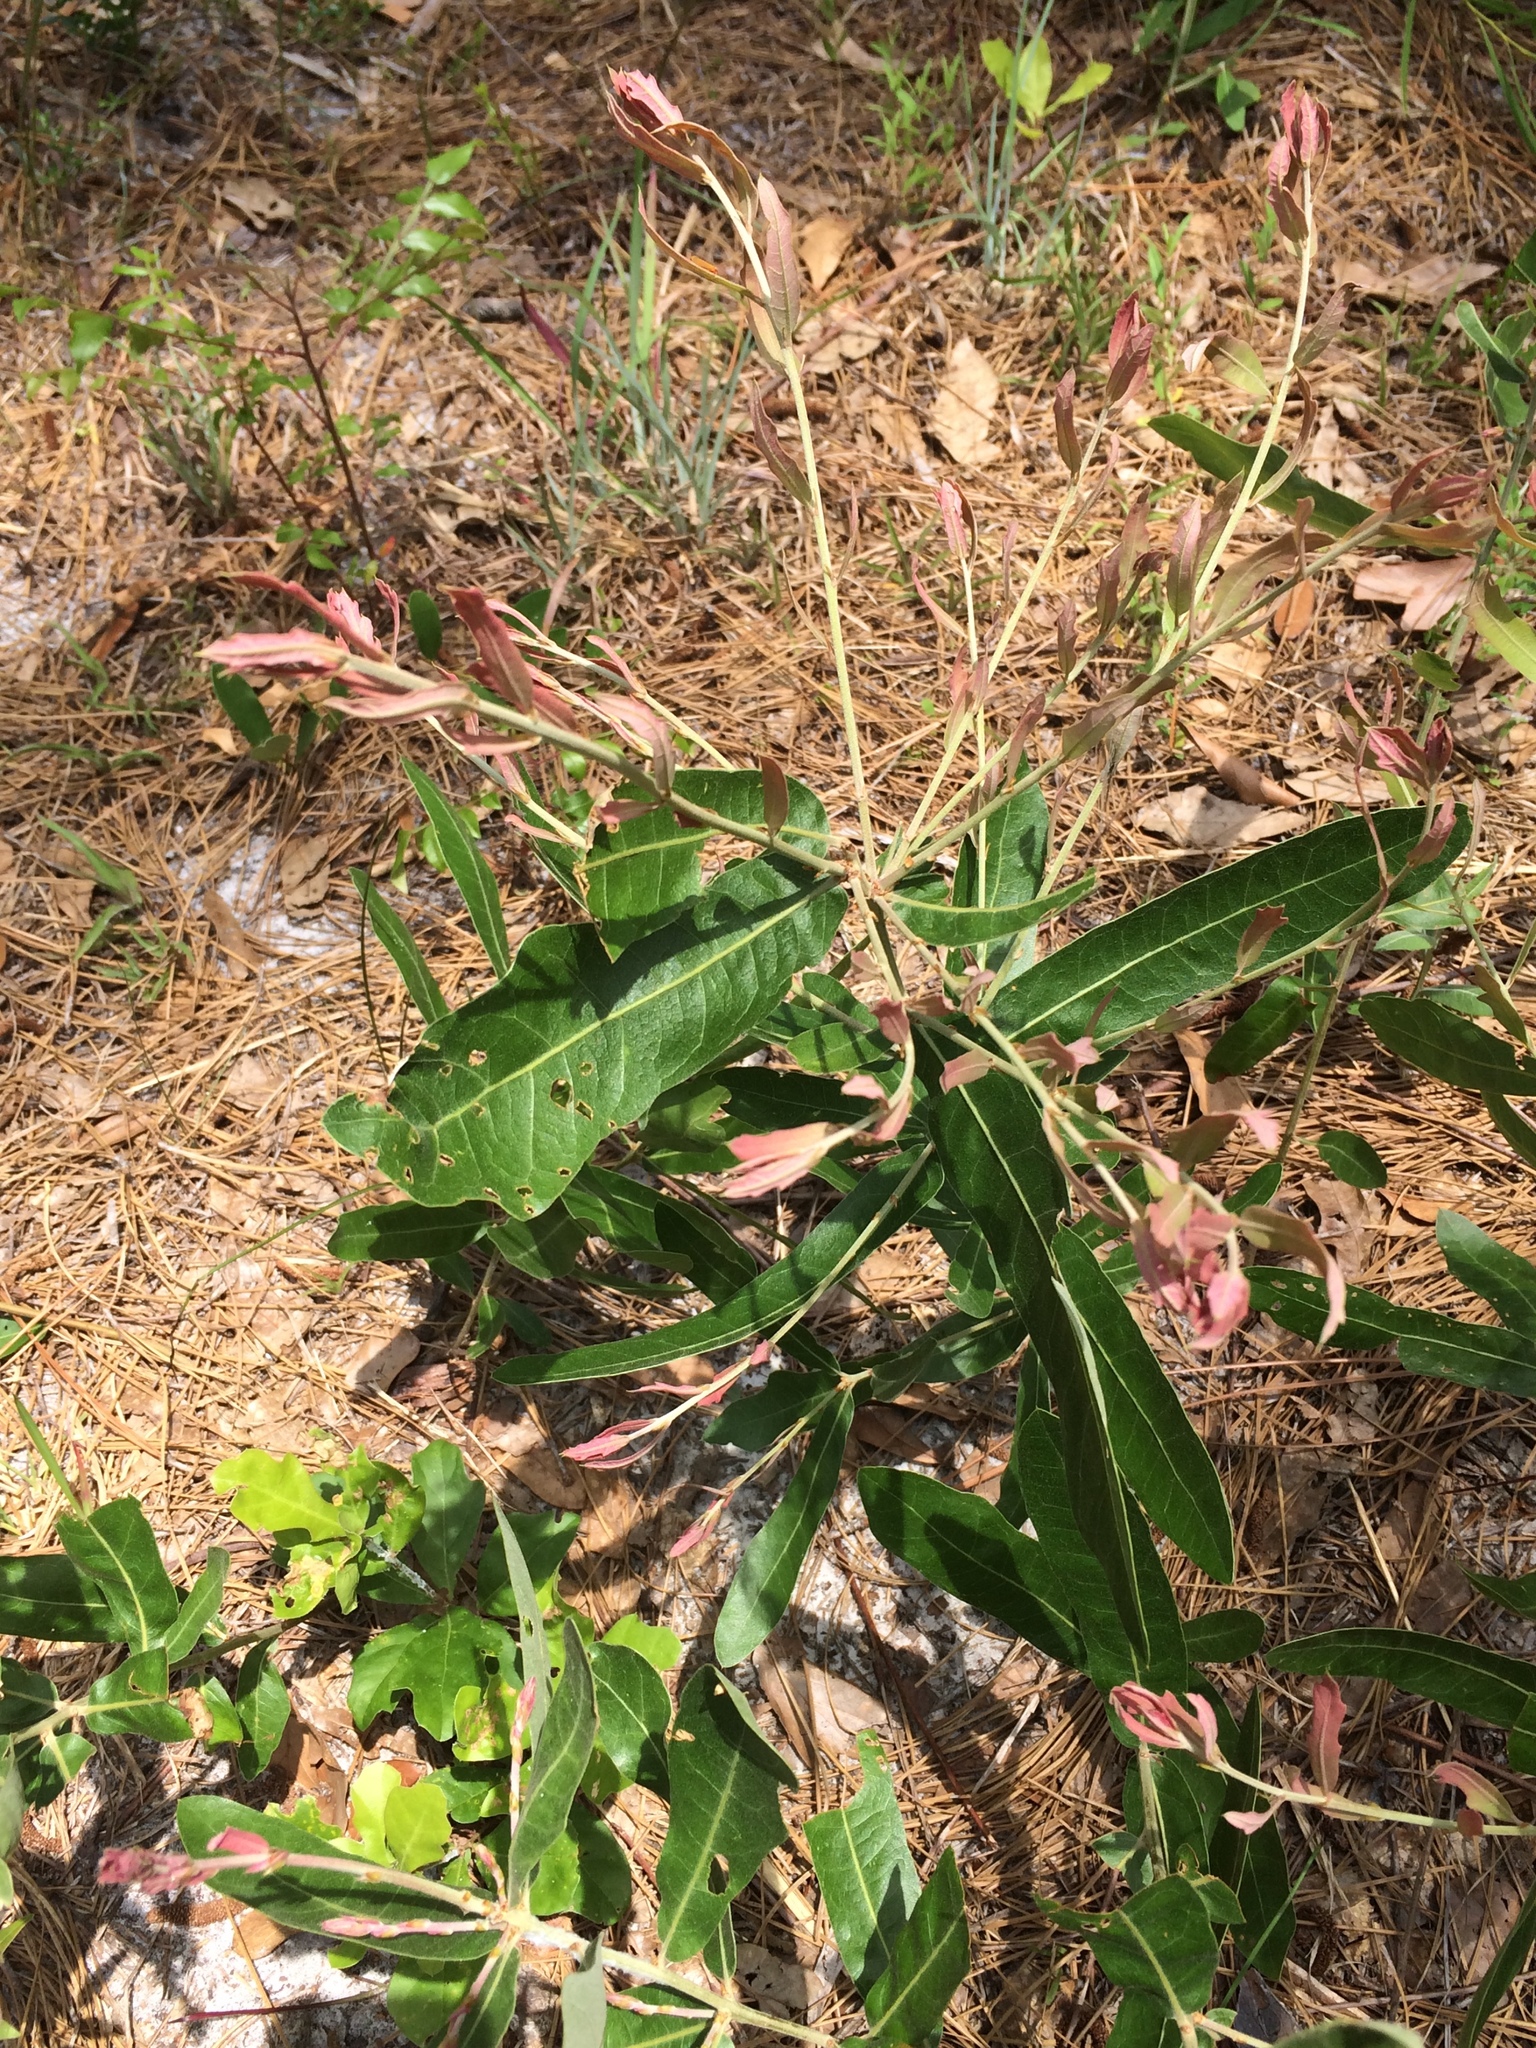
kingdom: Plantae
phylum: Tracheophyta
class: Magnoliopsida
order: Fagales
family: Fagaceae
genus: Quercus
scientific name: Quercus incana
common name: Bluejack oak
